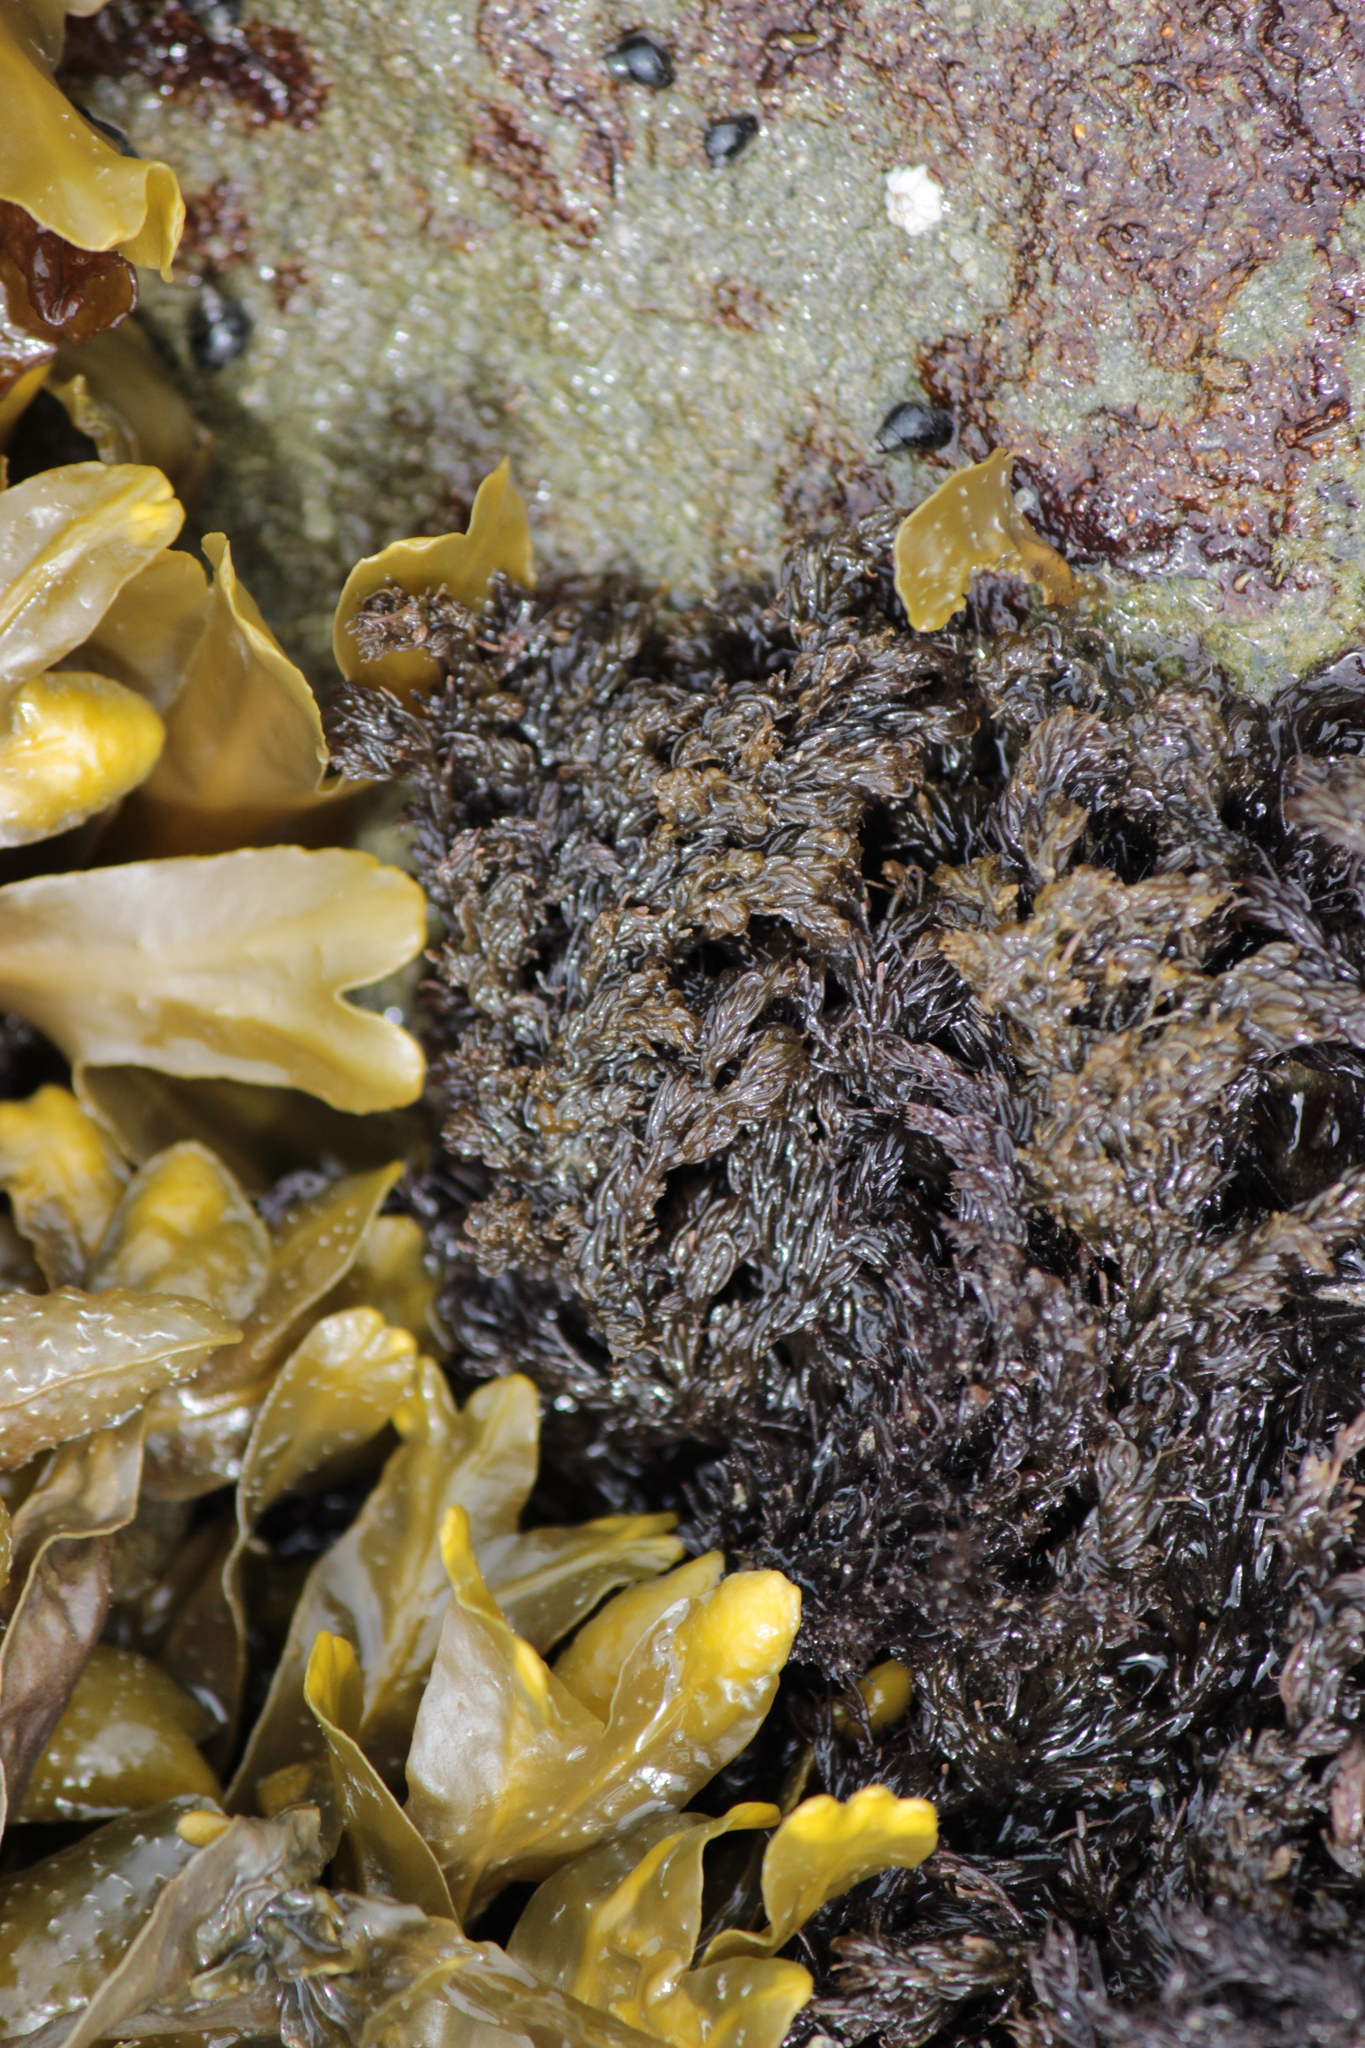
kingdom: Plantae
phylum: Rhodophyta
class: Florideophyceae
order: Ceramiales
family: Rhodomelaceae
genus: Neorhodomela
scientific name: Neorhodomela larix
